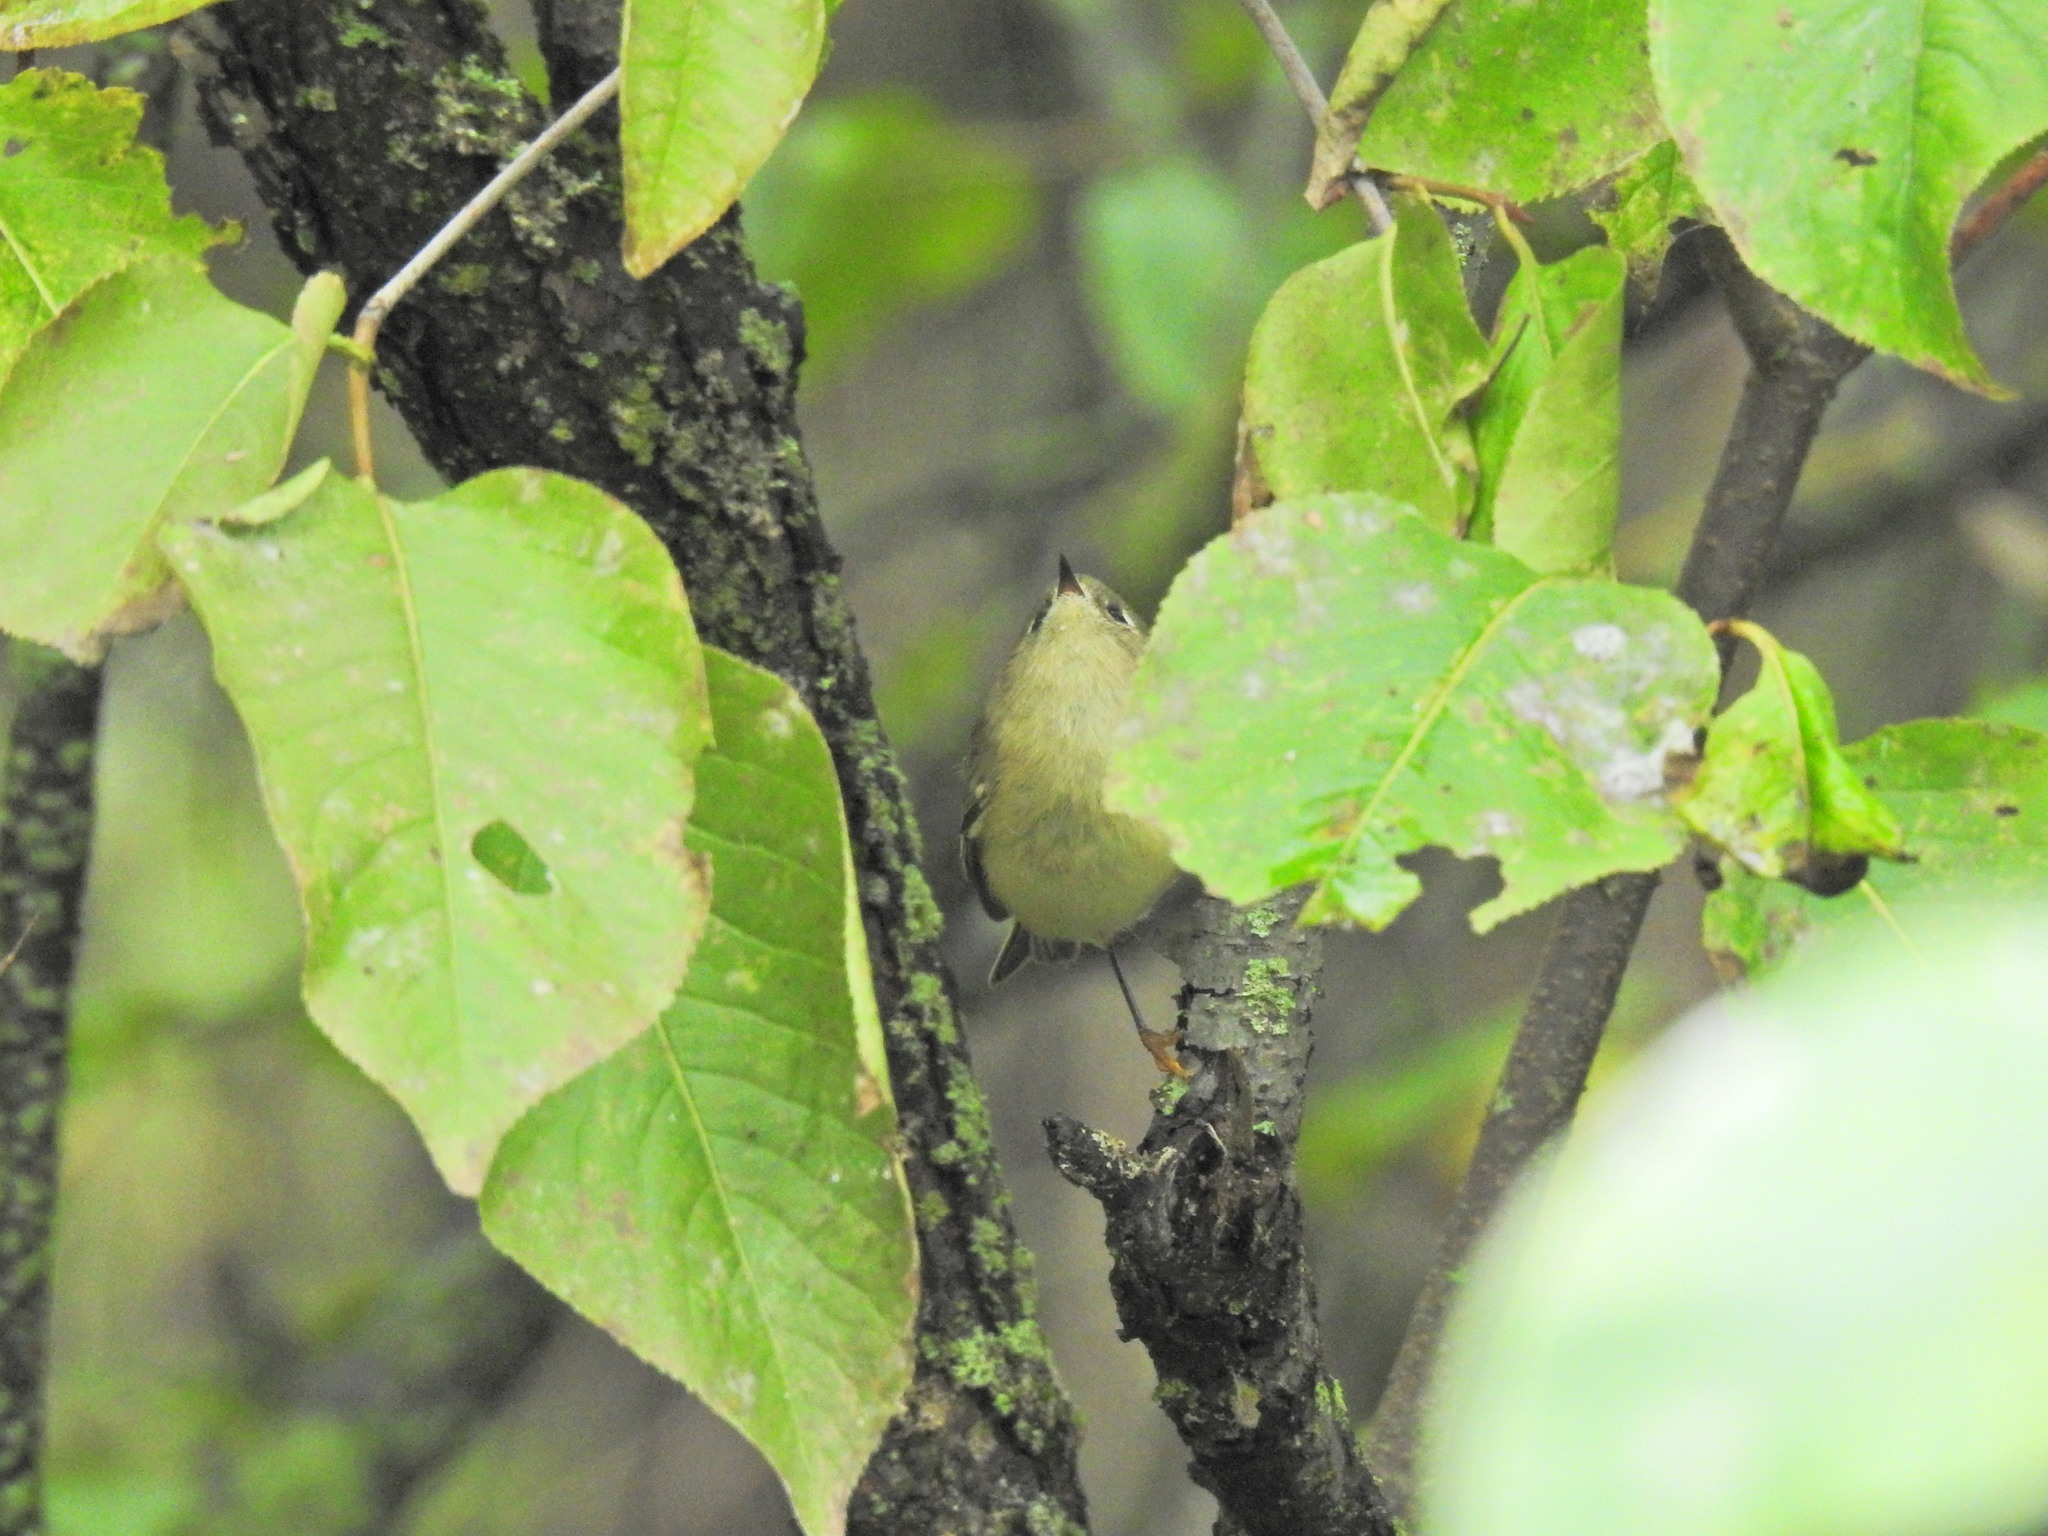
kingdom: Animalia
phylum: Chordata
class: Aves
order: Passeriformes
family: Regulidae
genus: Regulus
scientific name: Regulus calendula
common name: Ruby-crowned kinglet
